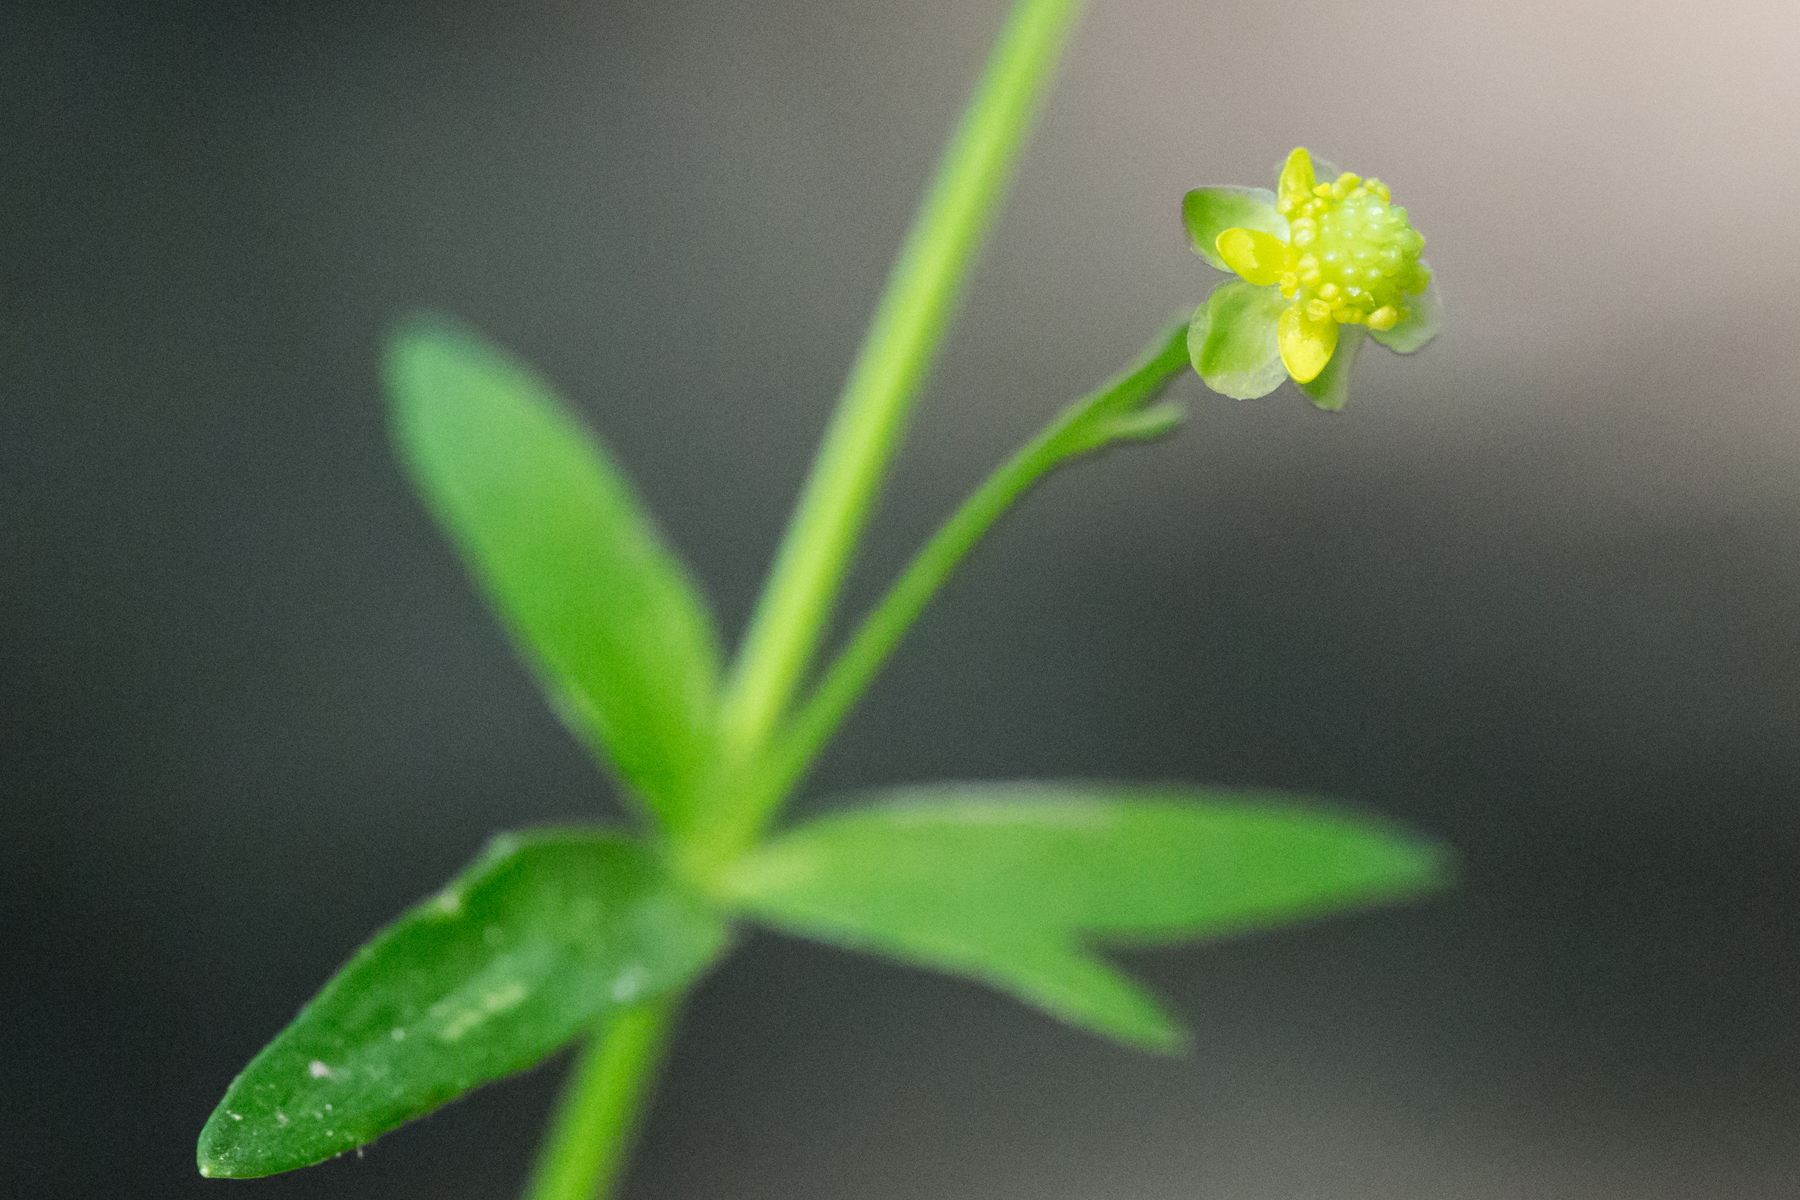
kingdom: Plantae
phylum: Tracheophyta
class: Magnoliopsida
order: Ranunculales
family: Ranunculaceae
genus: Ranunculus
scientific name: Ranunculus abortivus
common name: Early wood buttercup
